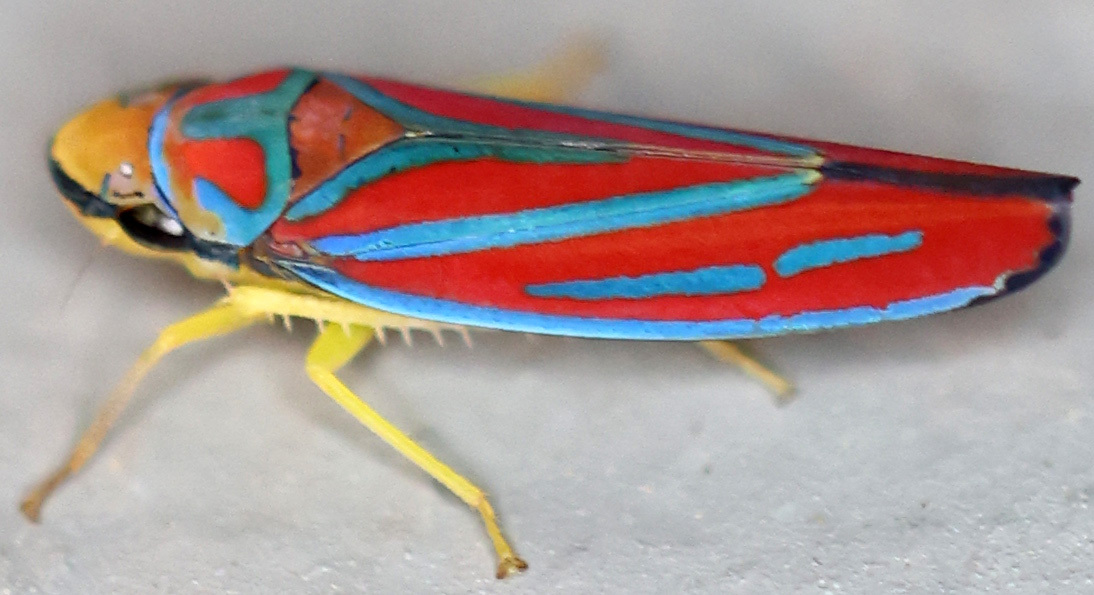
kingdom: Animalia
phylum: Arthropoda
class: Insecta
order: Hemiptera
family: Cicadellidae
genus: Graphocephala
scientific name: Graphocephala coccinea
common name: Candy-striped leafhopper
